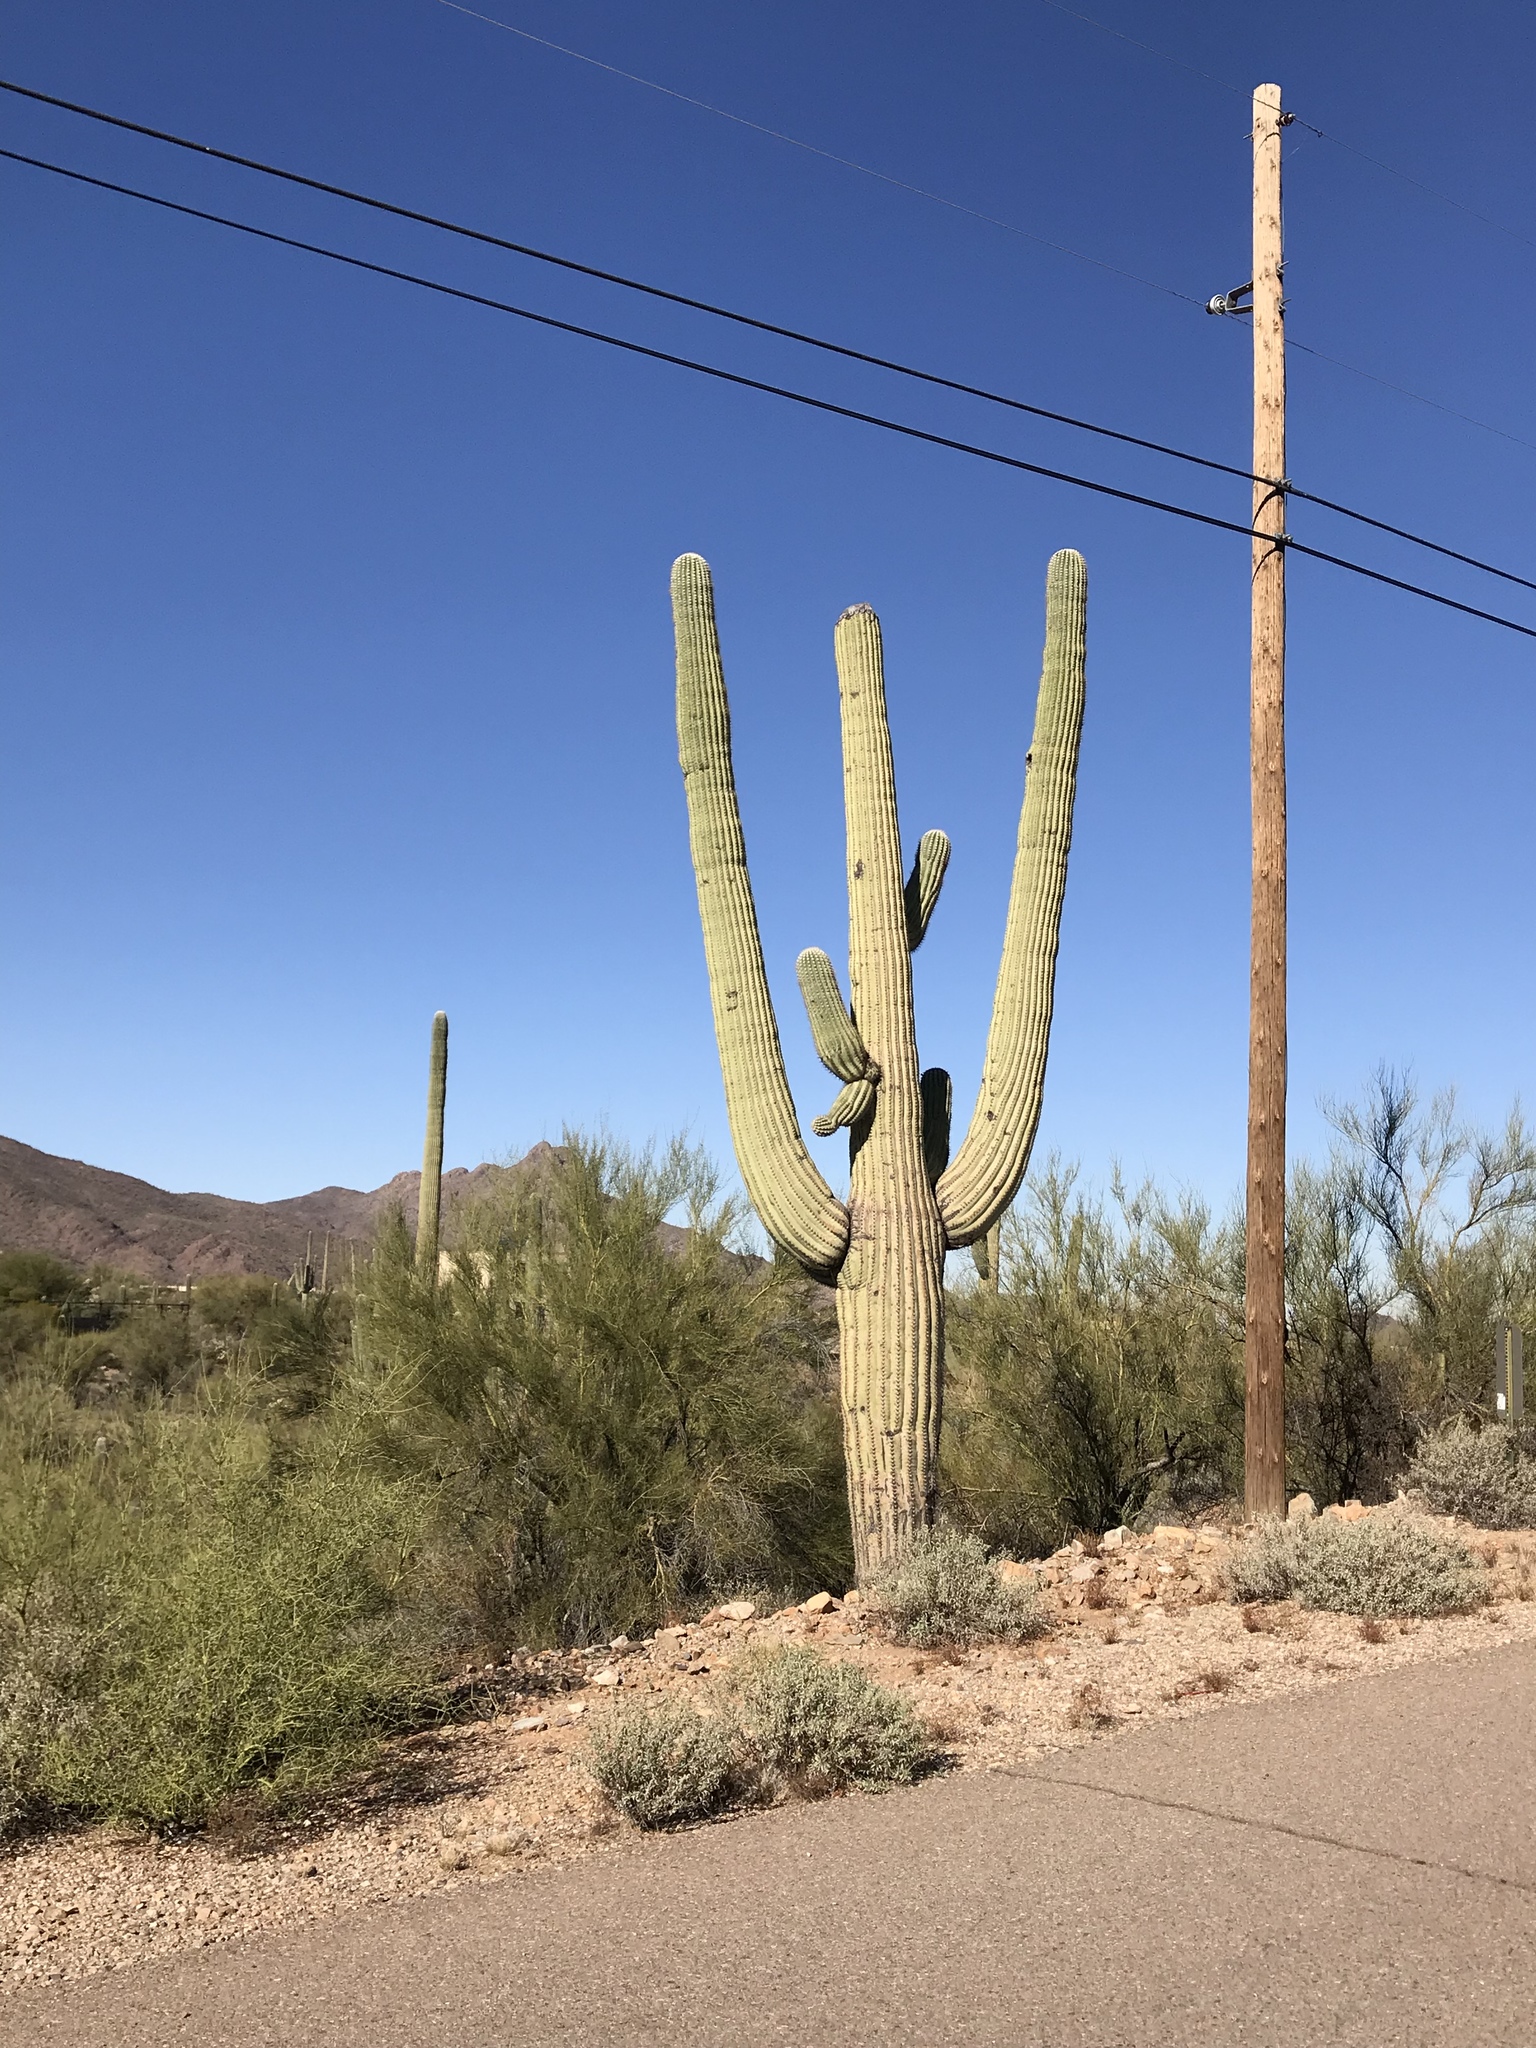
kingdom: Plantae
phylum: Tracheophyta
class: Magnoliopsida
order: Caryophyllales
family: Cactaceae
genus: Carnegiea
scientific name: Carnegiea gigantea
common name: Saguaro
